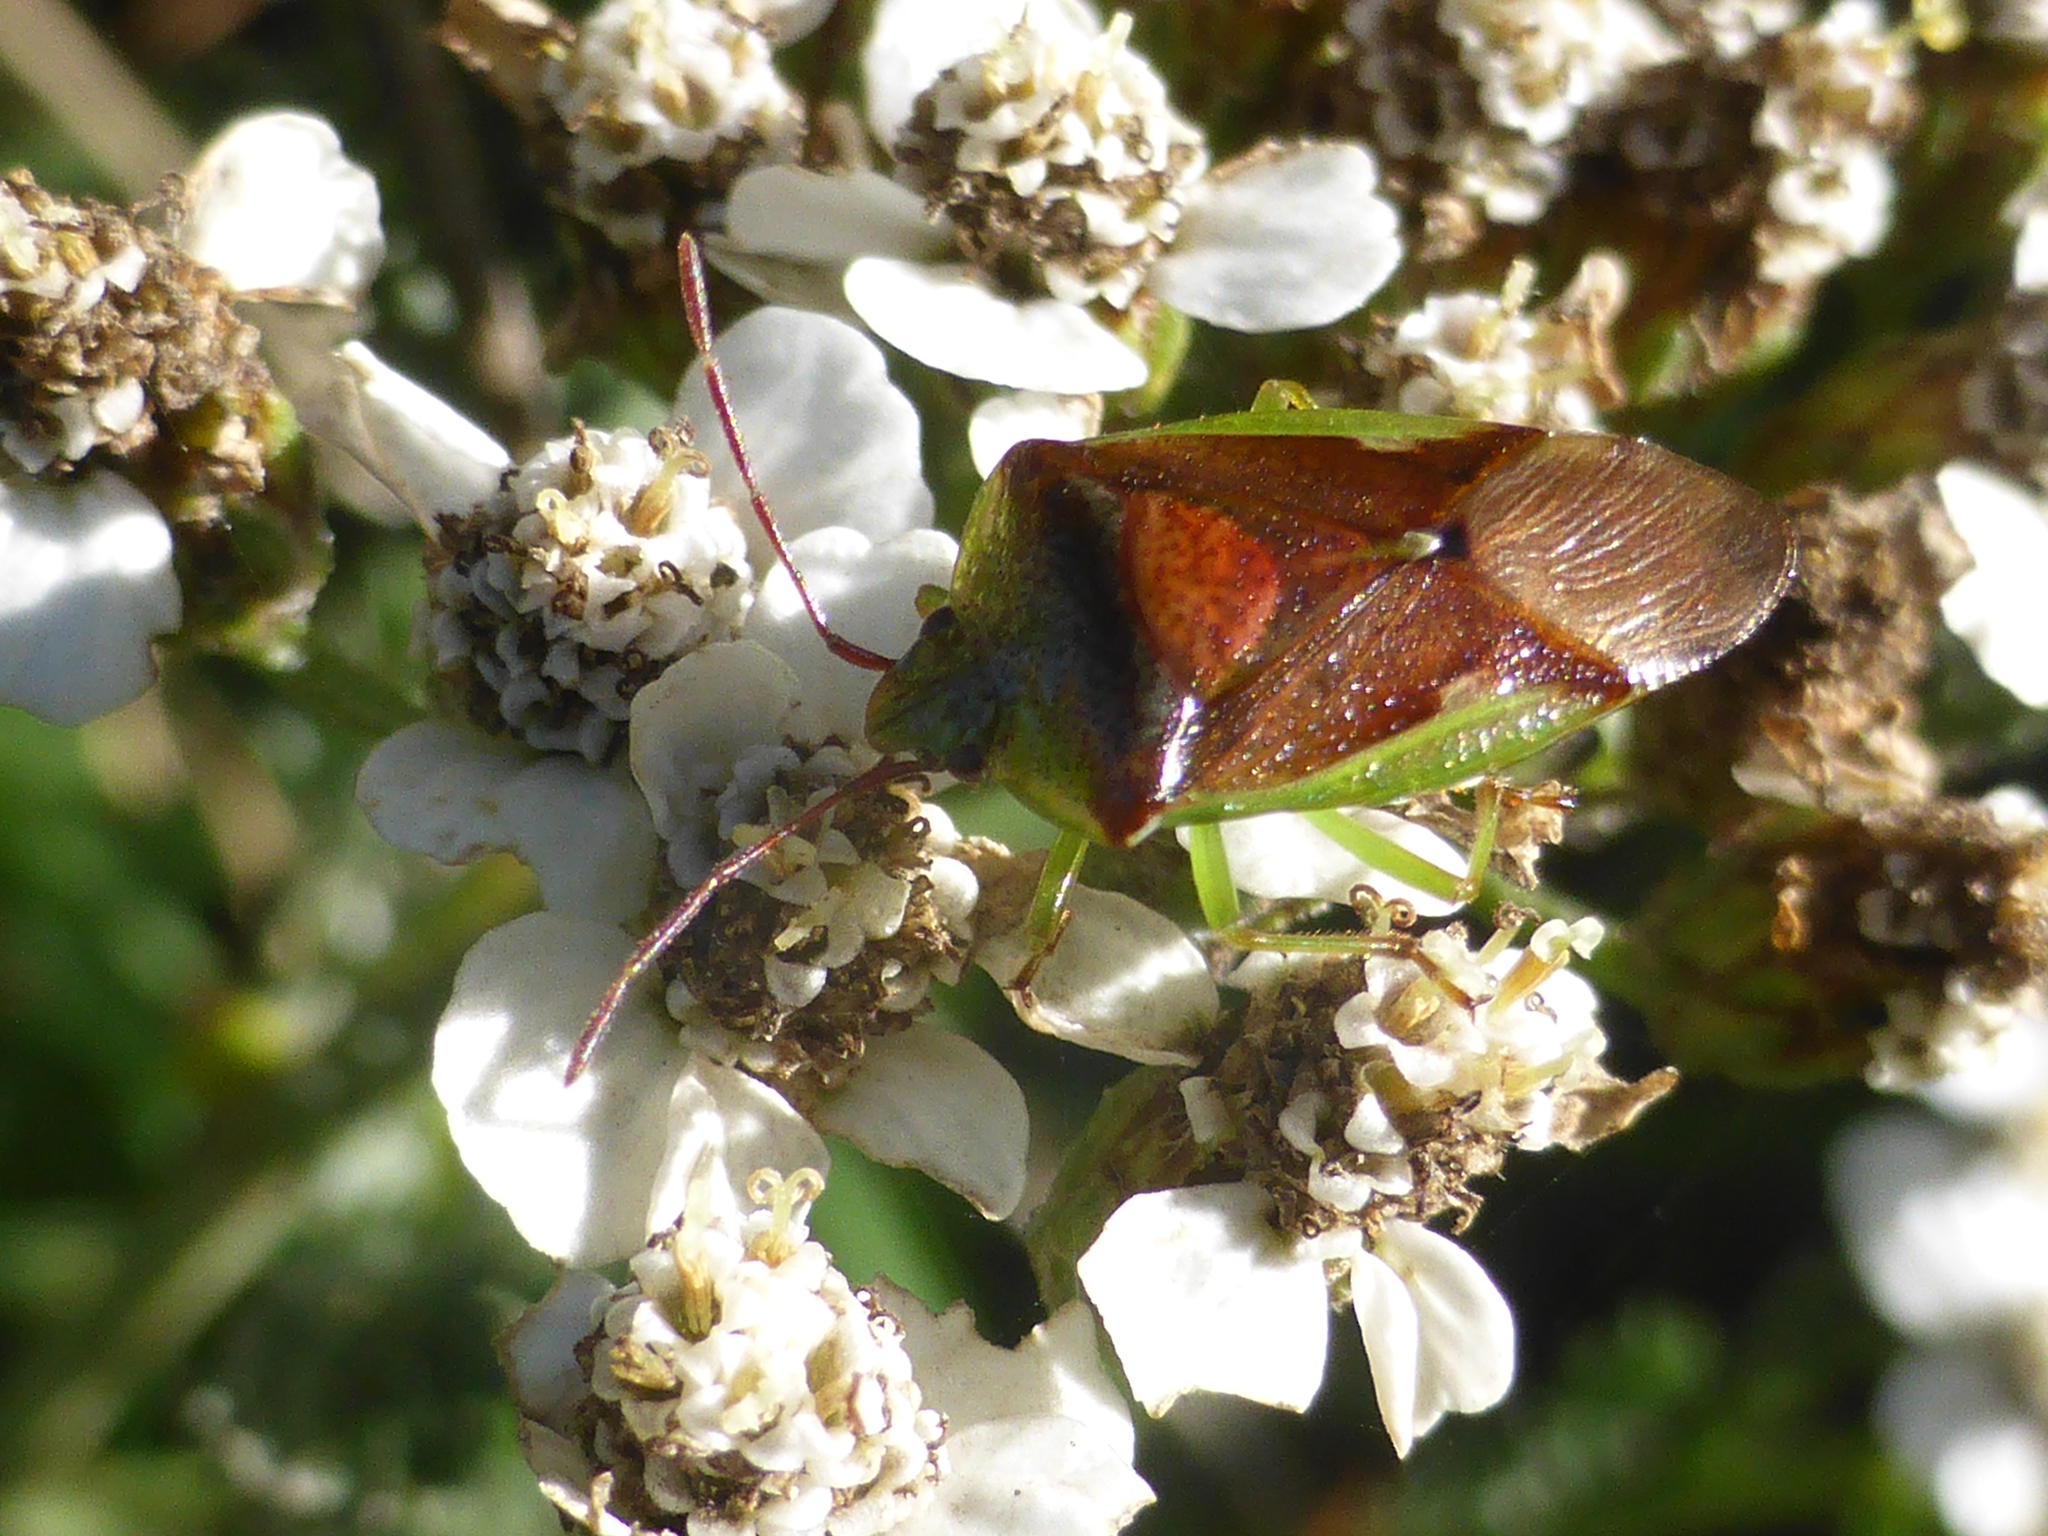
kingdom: Animalia
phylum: Arthropoda
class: Insecta
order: Hemiptera
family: Acanthosomatidae
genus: Oncacontias
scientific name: Oncacontias vittatus
